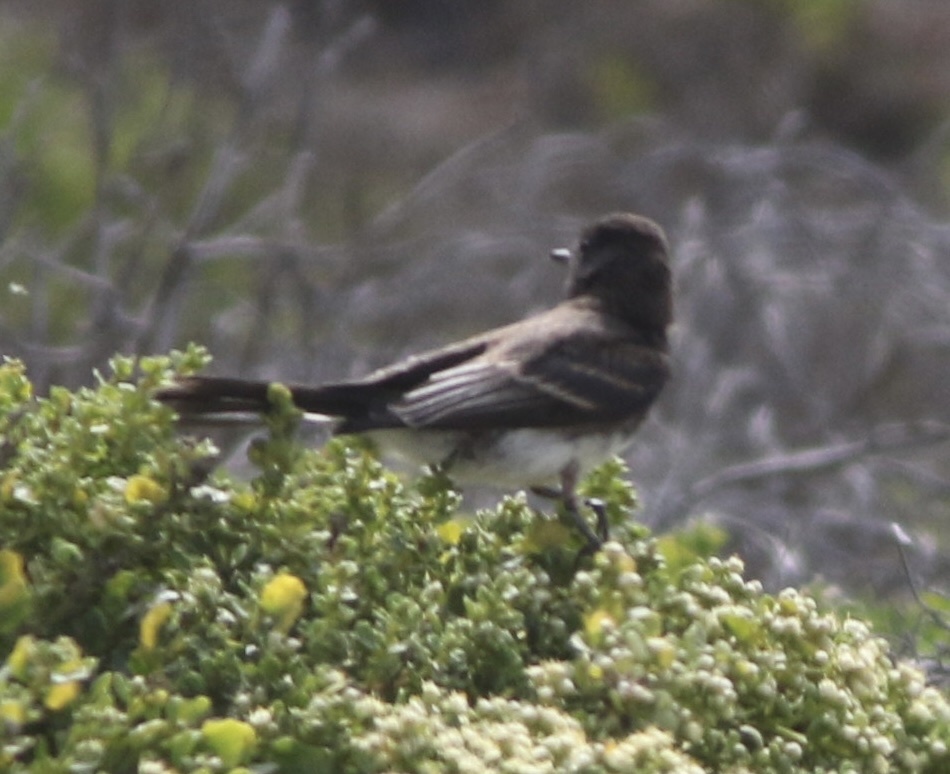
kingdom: Animalia
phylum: Chordata
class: Aves
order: Passeriformes
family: Tyrannidae
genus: Sayornis
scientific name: Sayornis nigricans
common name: Black phoebe
